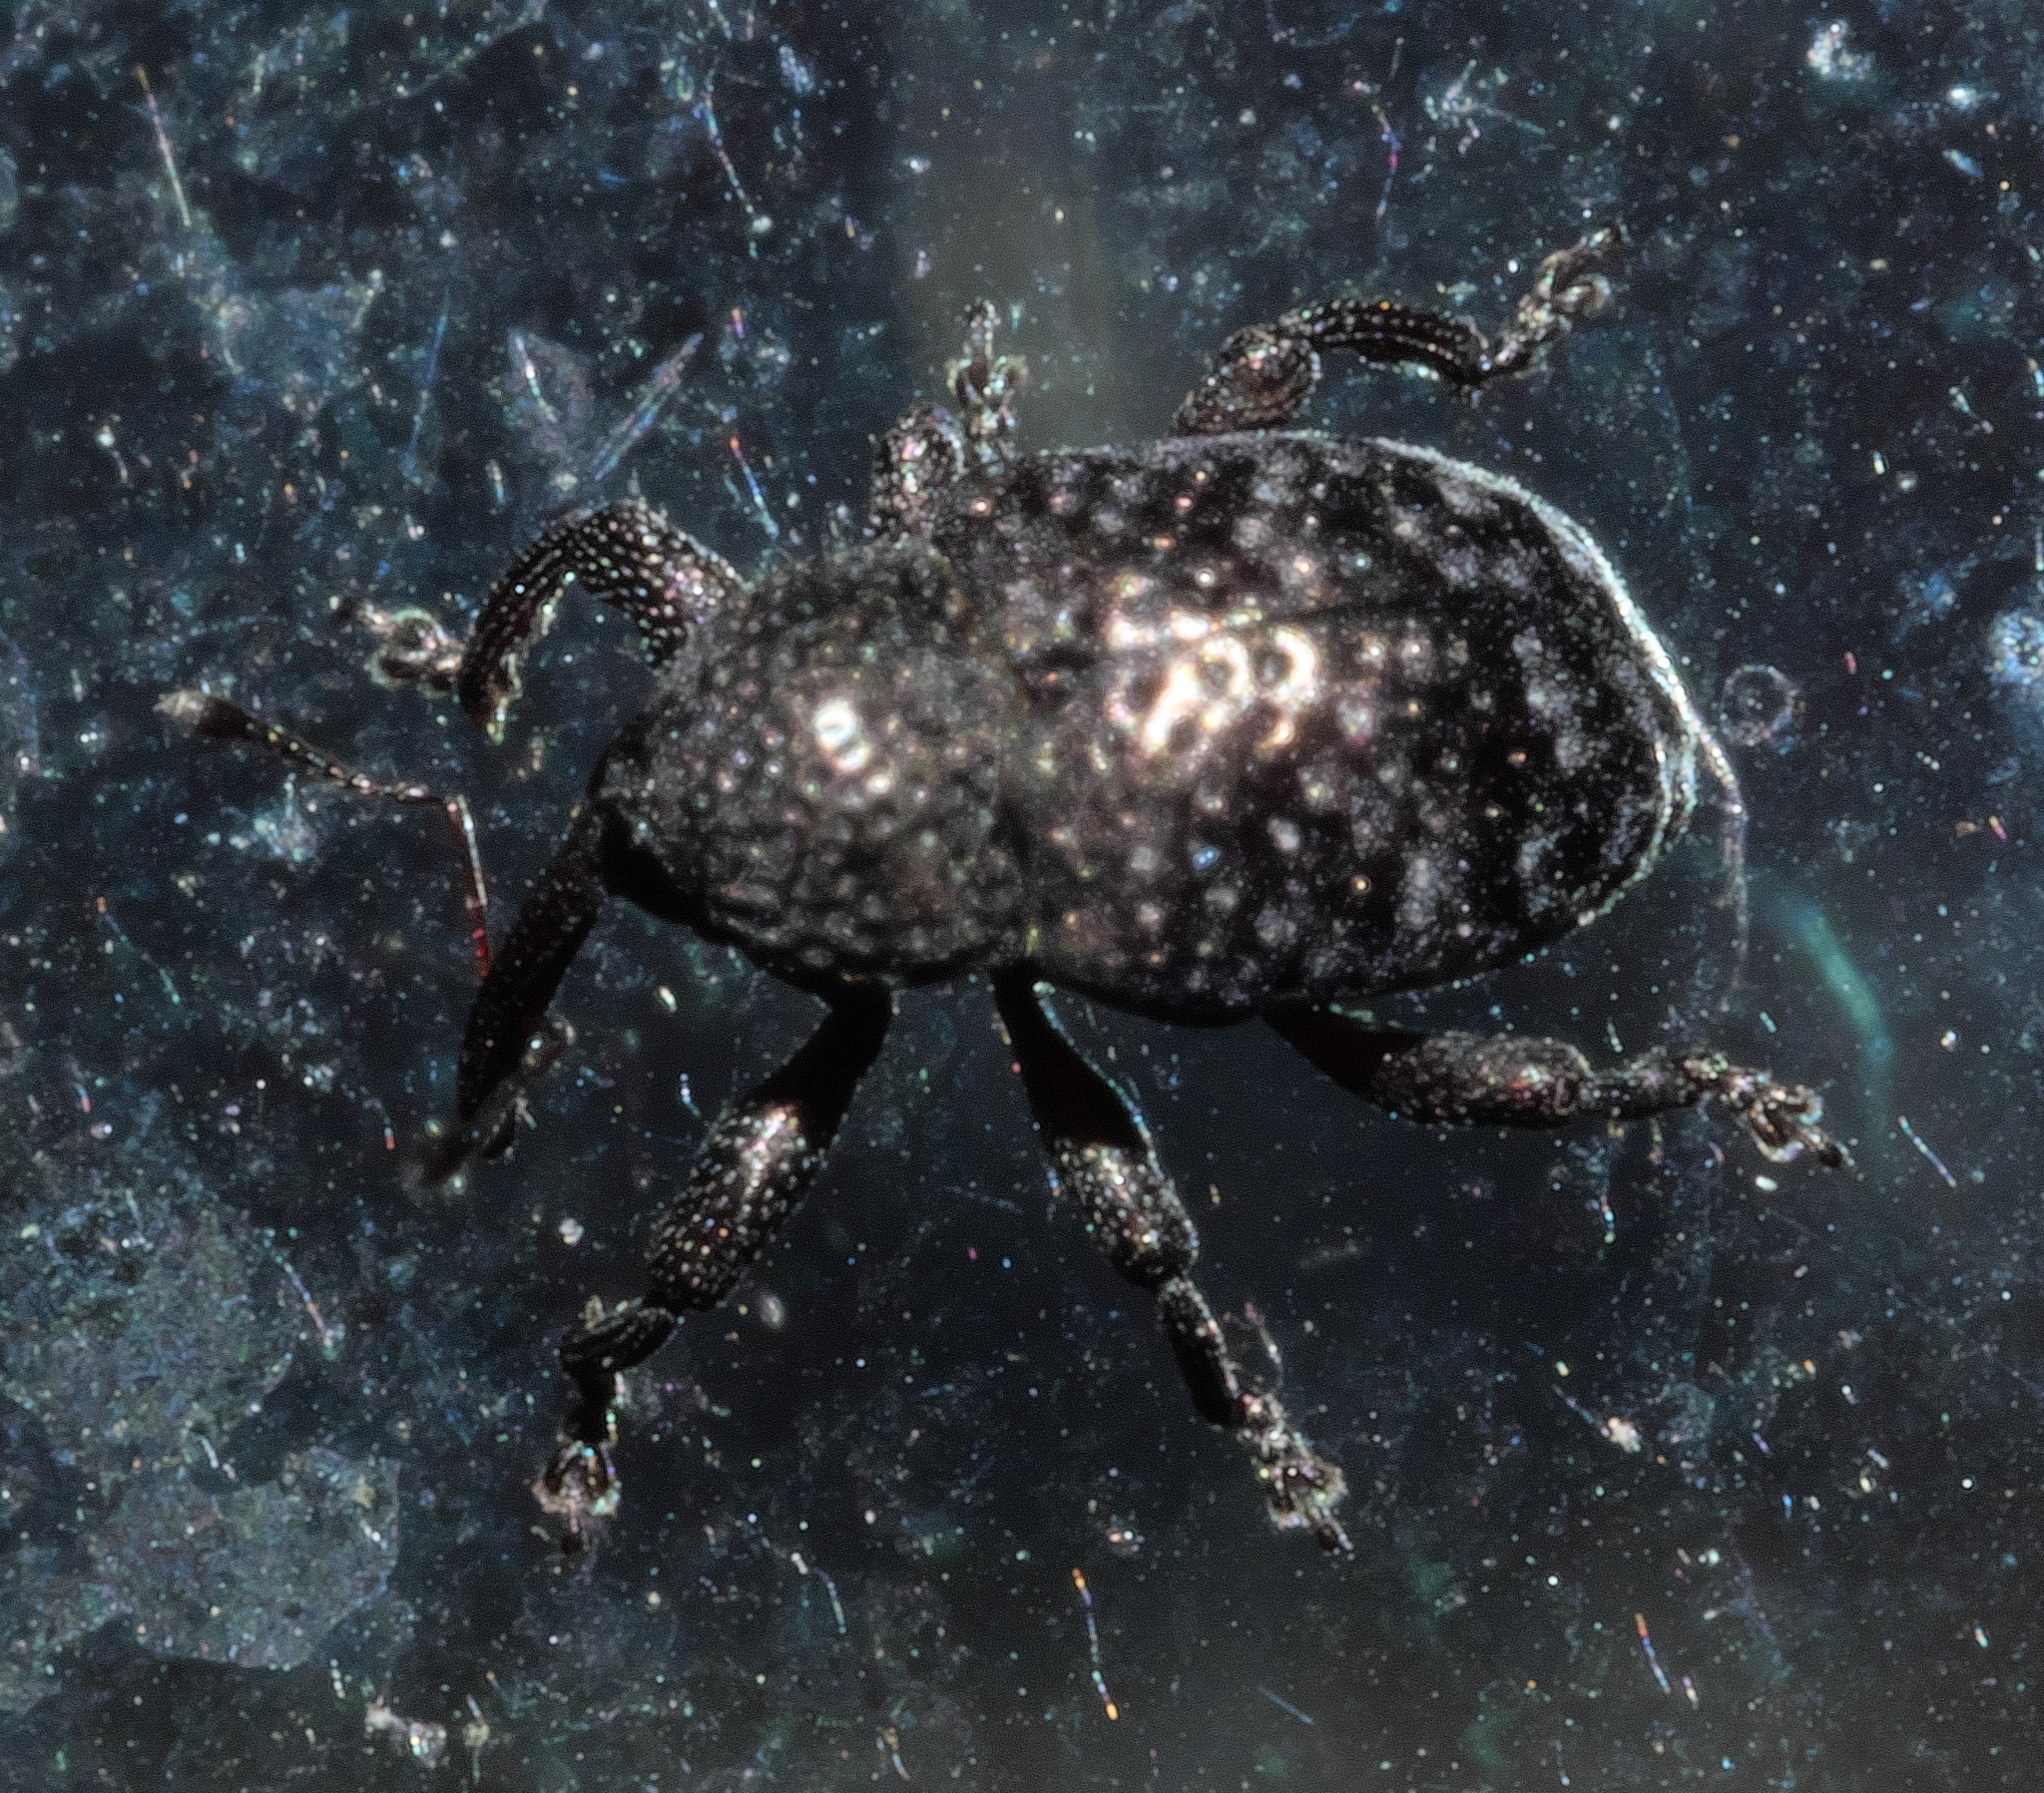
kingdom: Animalia
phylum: Arthropoda
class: Insecta
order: Coleoptera
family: Curculionidae
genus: Chalcodermus
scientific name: Chalcodermus aeneus
